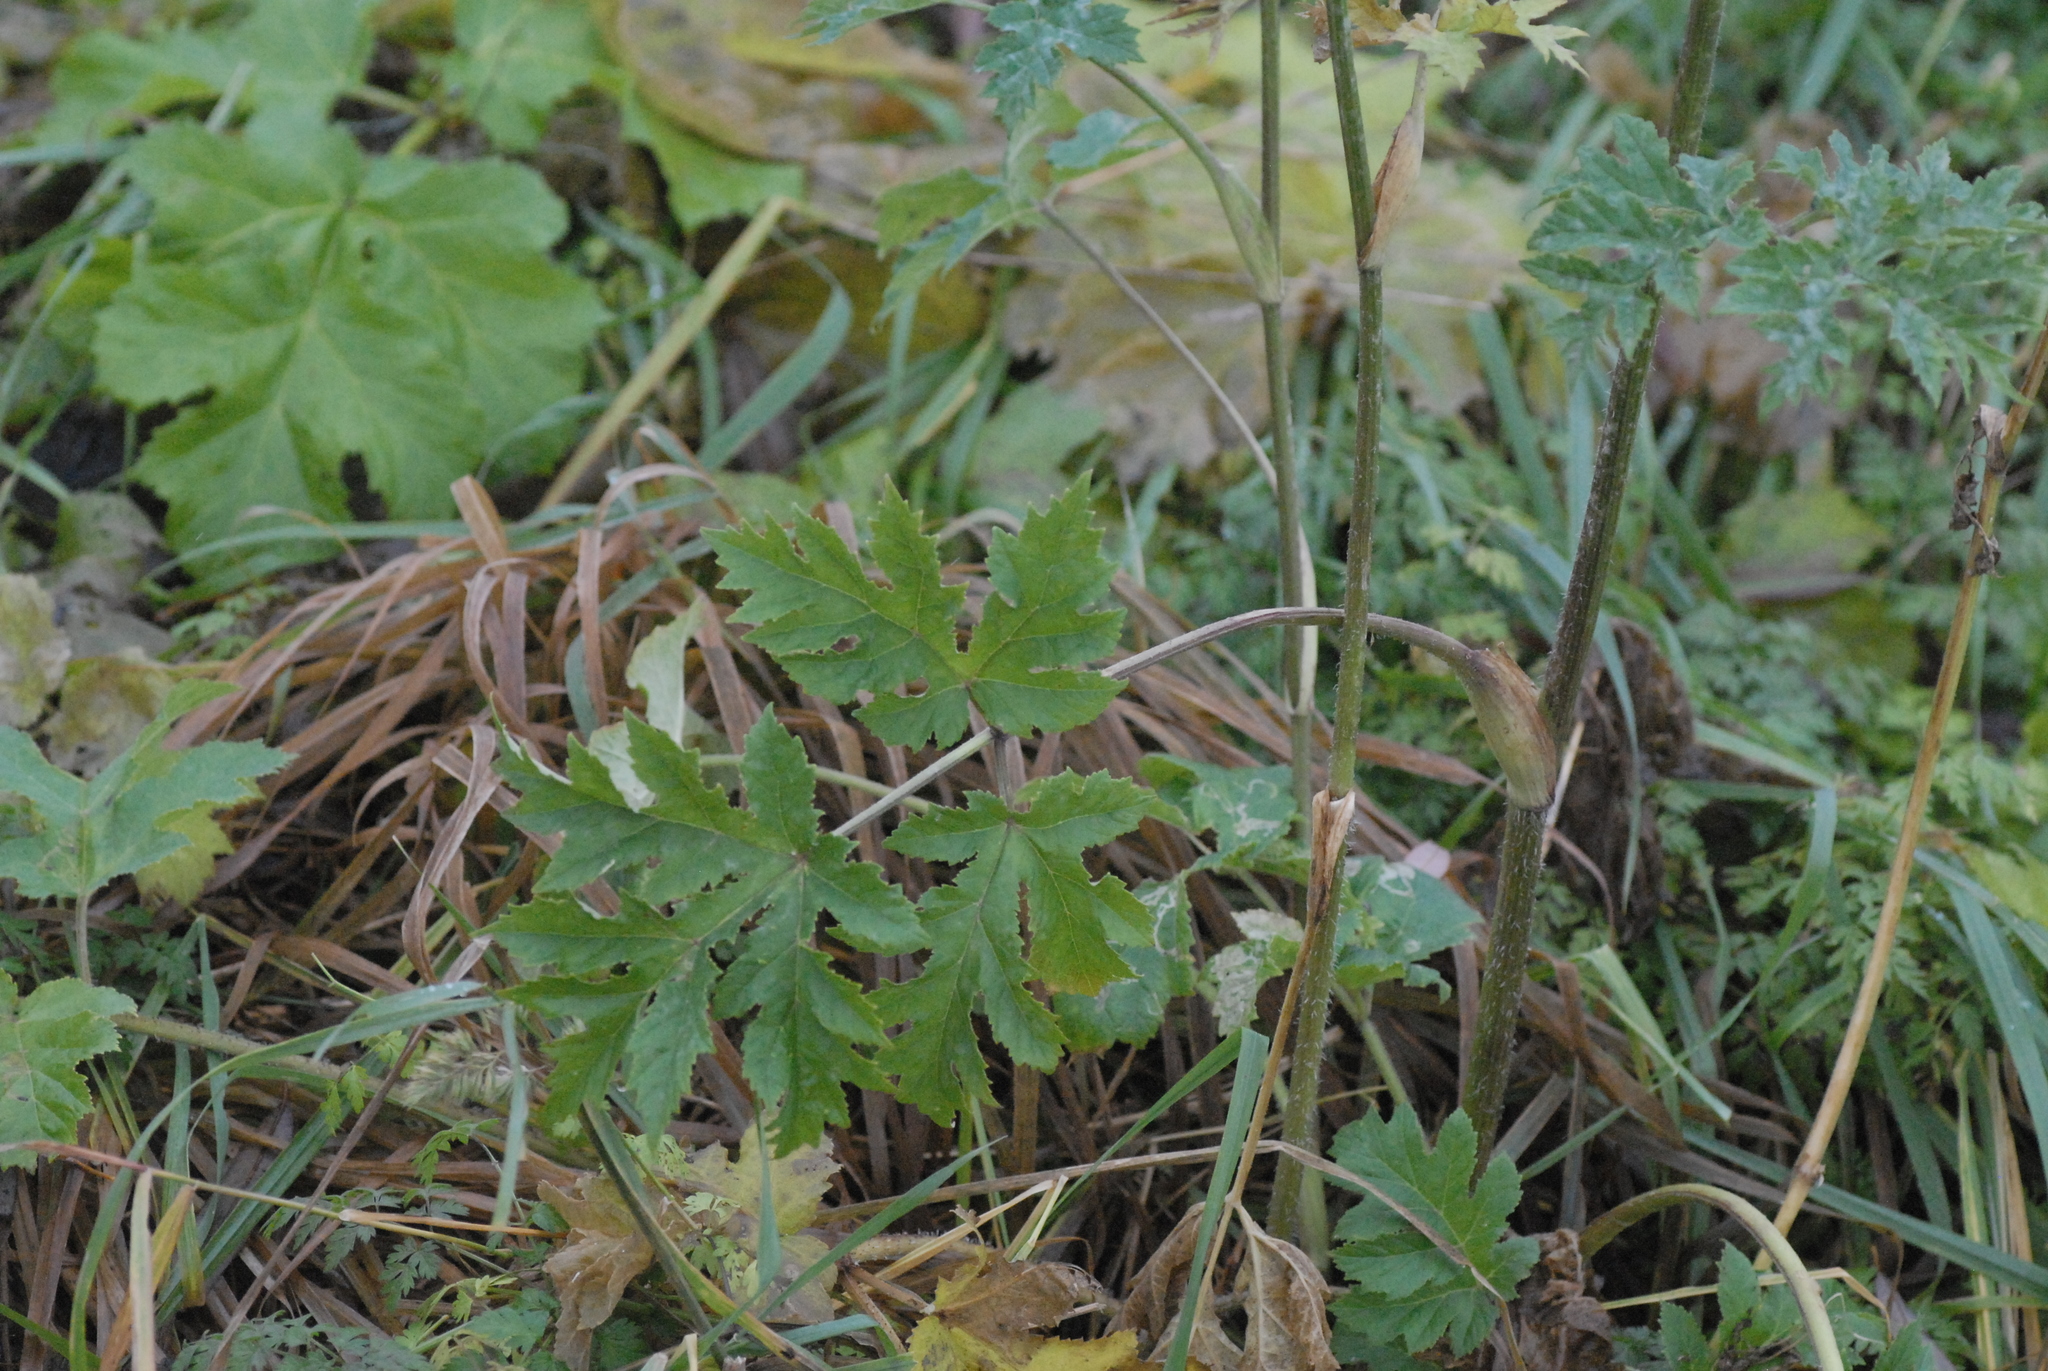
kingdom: Plantae
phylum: Tracheophyta
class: Magnoliopsida
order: Apiales
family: Apiaceae
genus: Heracleum
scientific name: Heracleum sphondylium
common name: Hogweed
